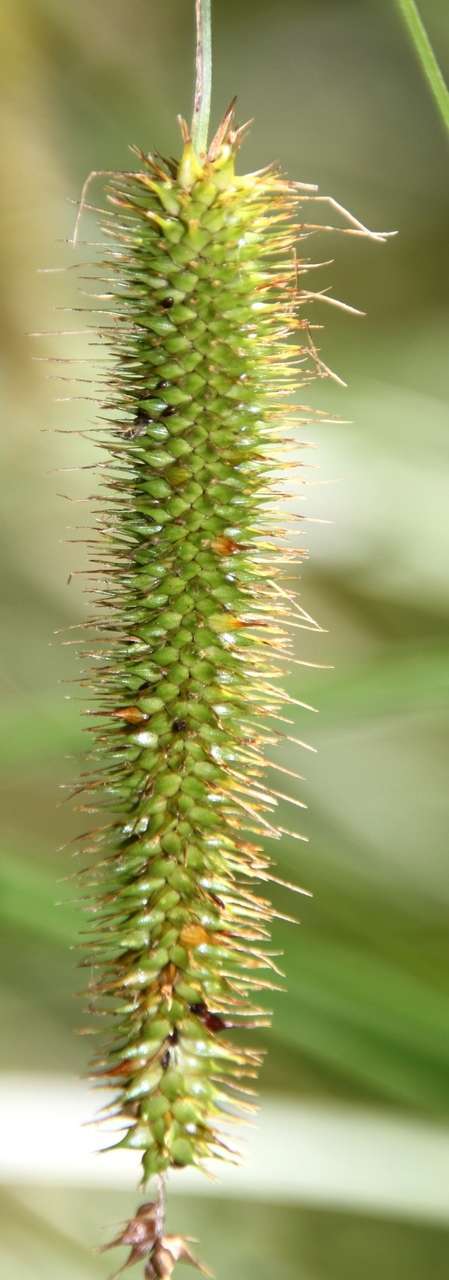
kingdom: Plantae
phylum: Tracheophyta
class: Liliopsida
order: Poales
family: Cyperaceae
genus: Carex
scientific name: Carex fascicularis
